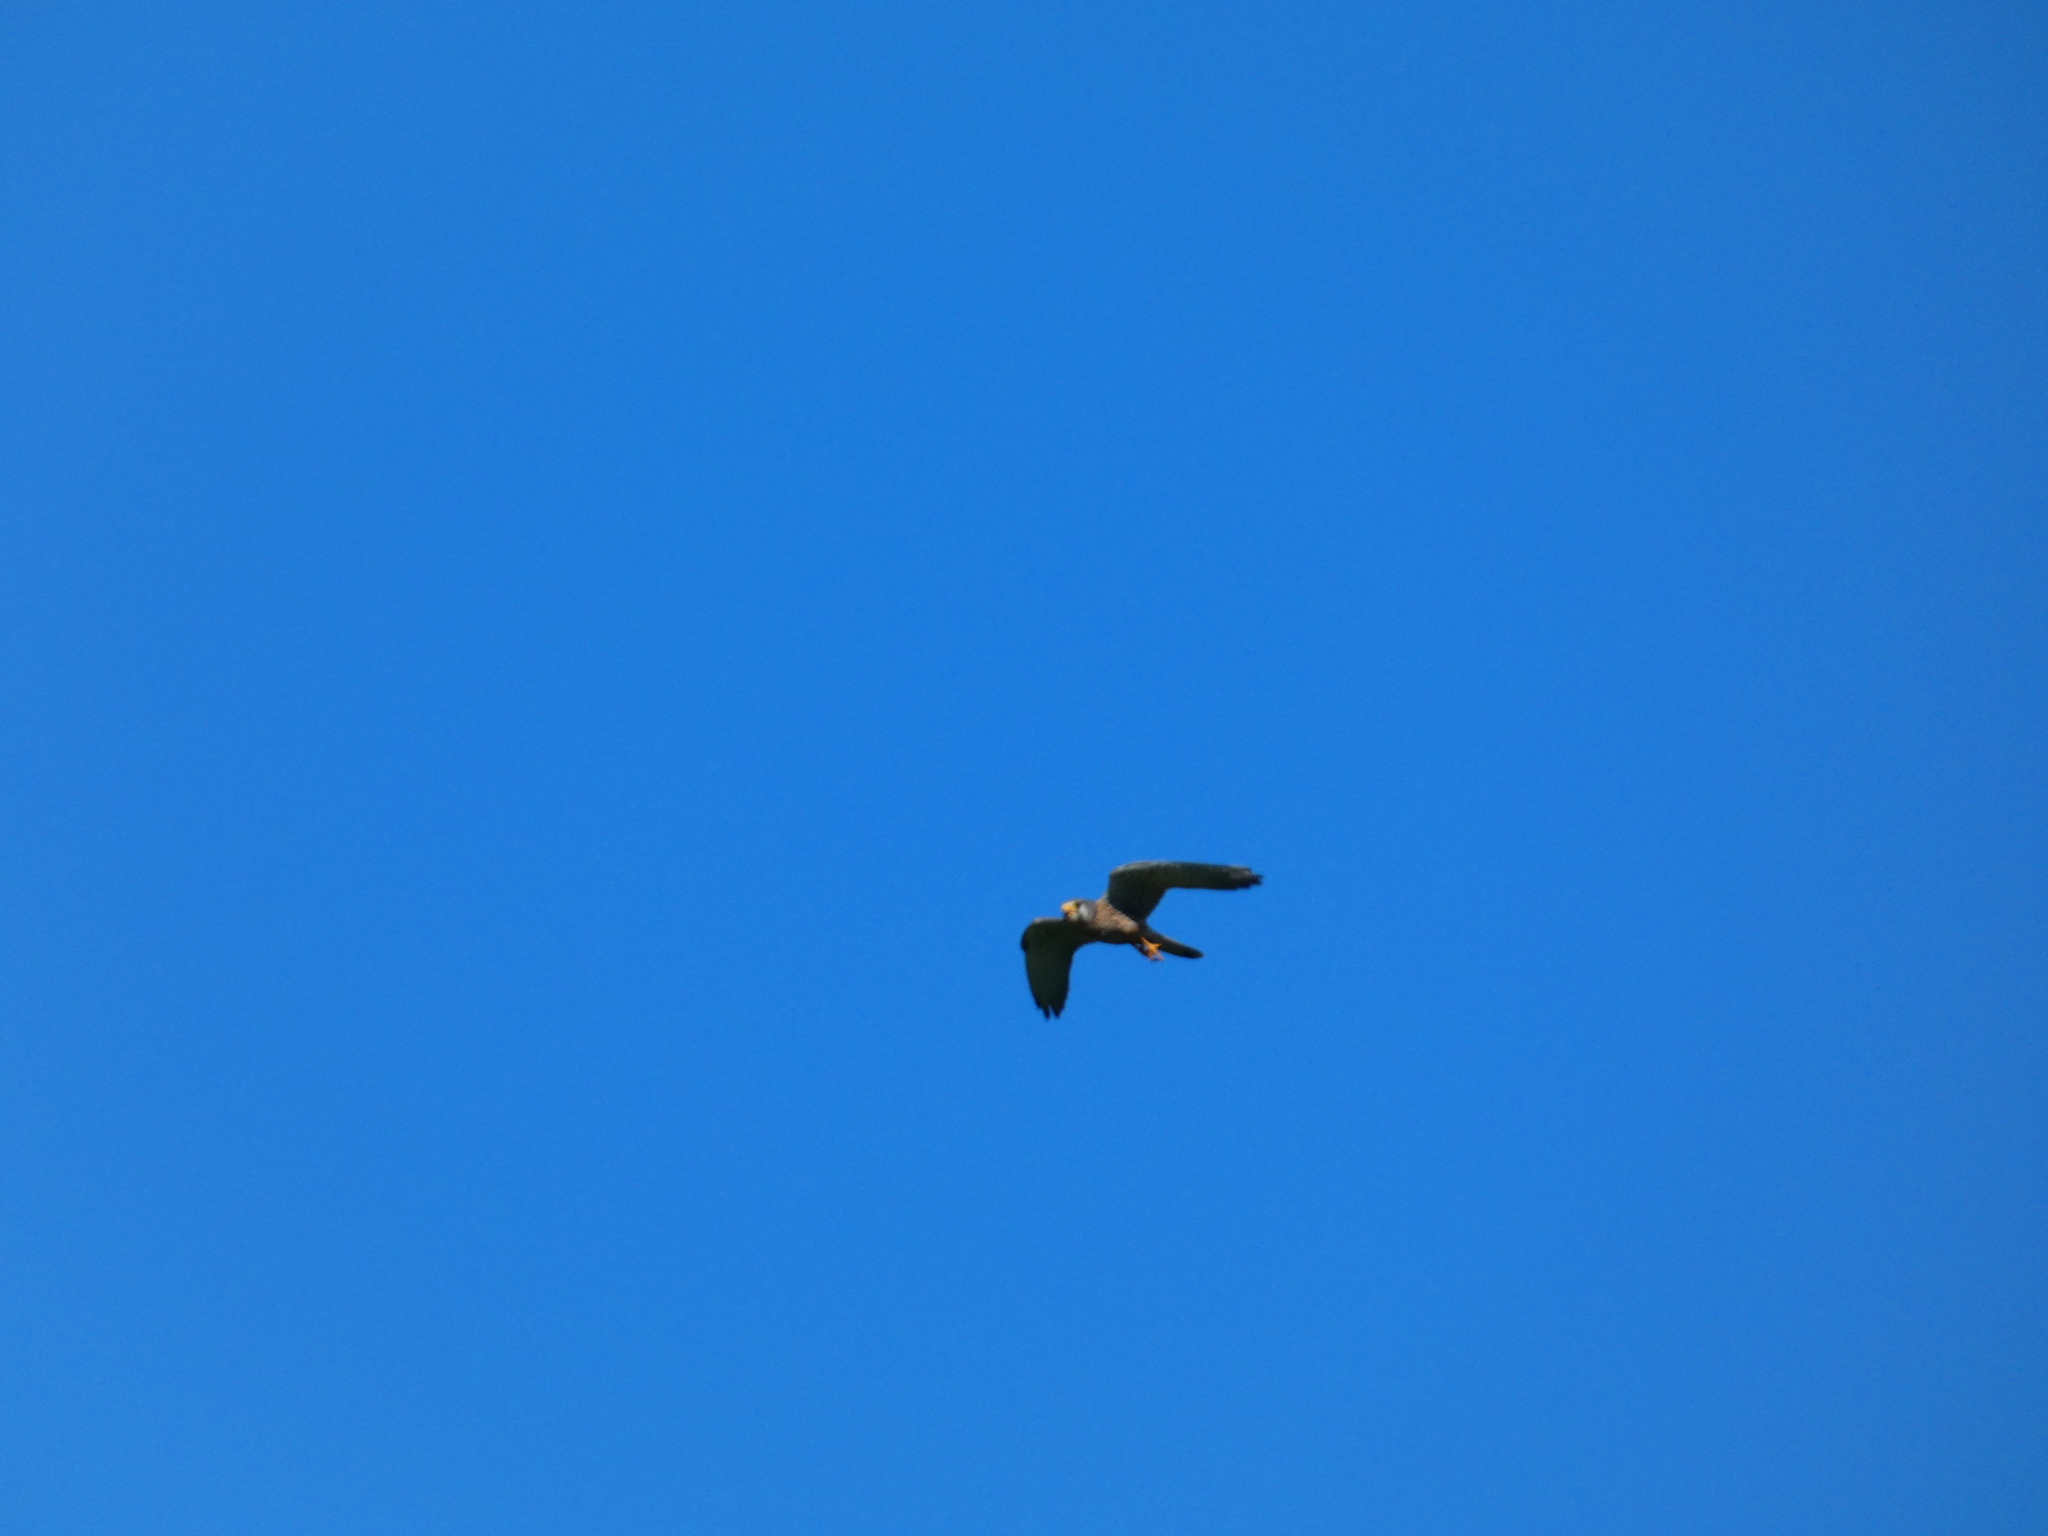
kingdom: Animalia
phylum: Chordata
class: Aves
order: Falconiformes
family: Falconidae
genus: Falco
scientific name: Falco tinnunculus
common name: Common kestrel
